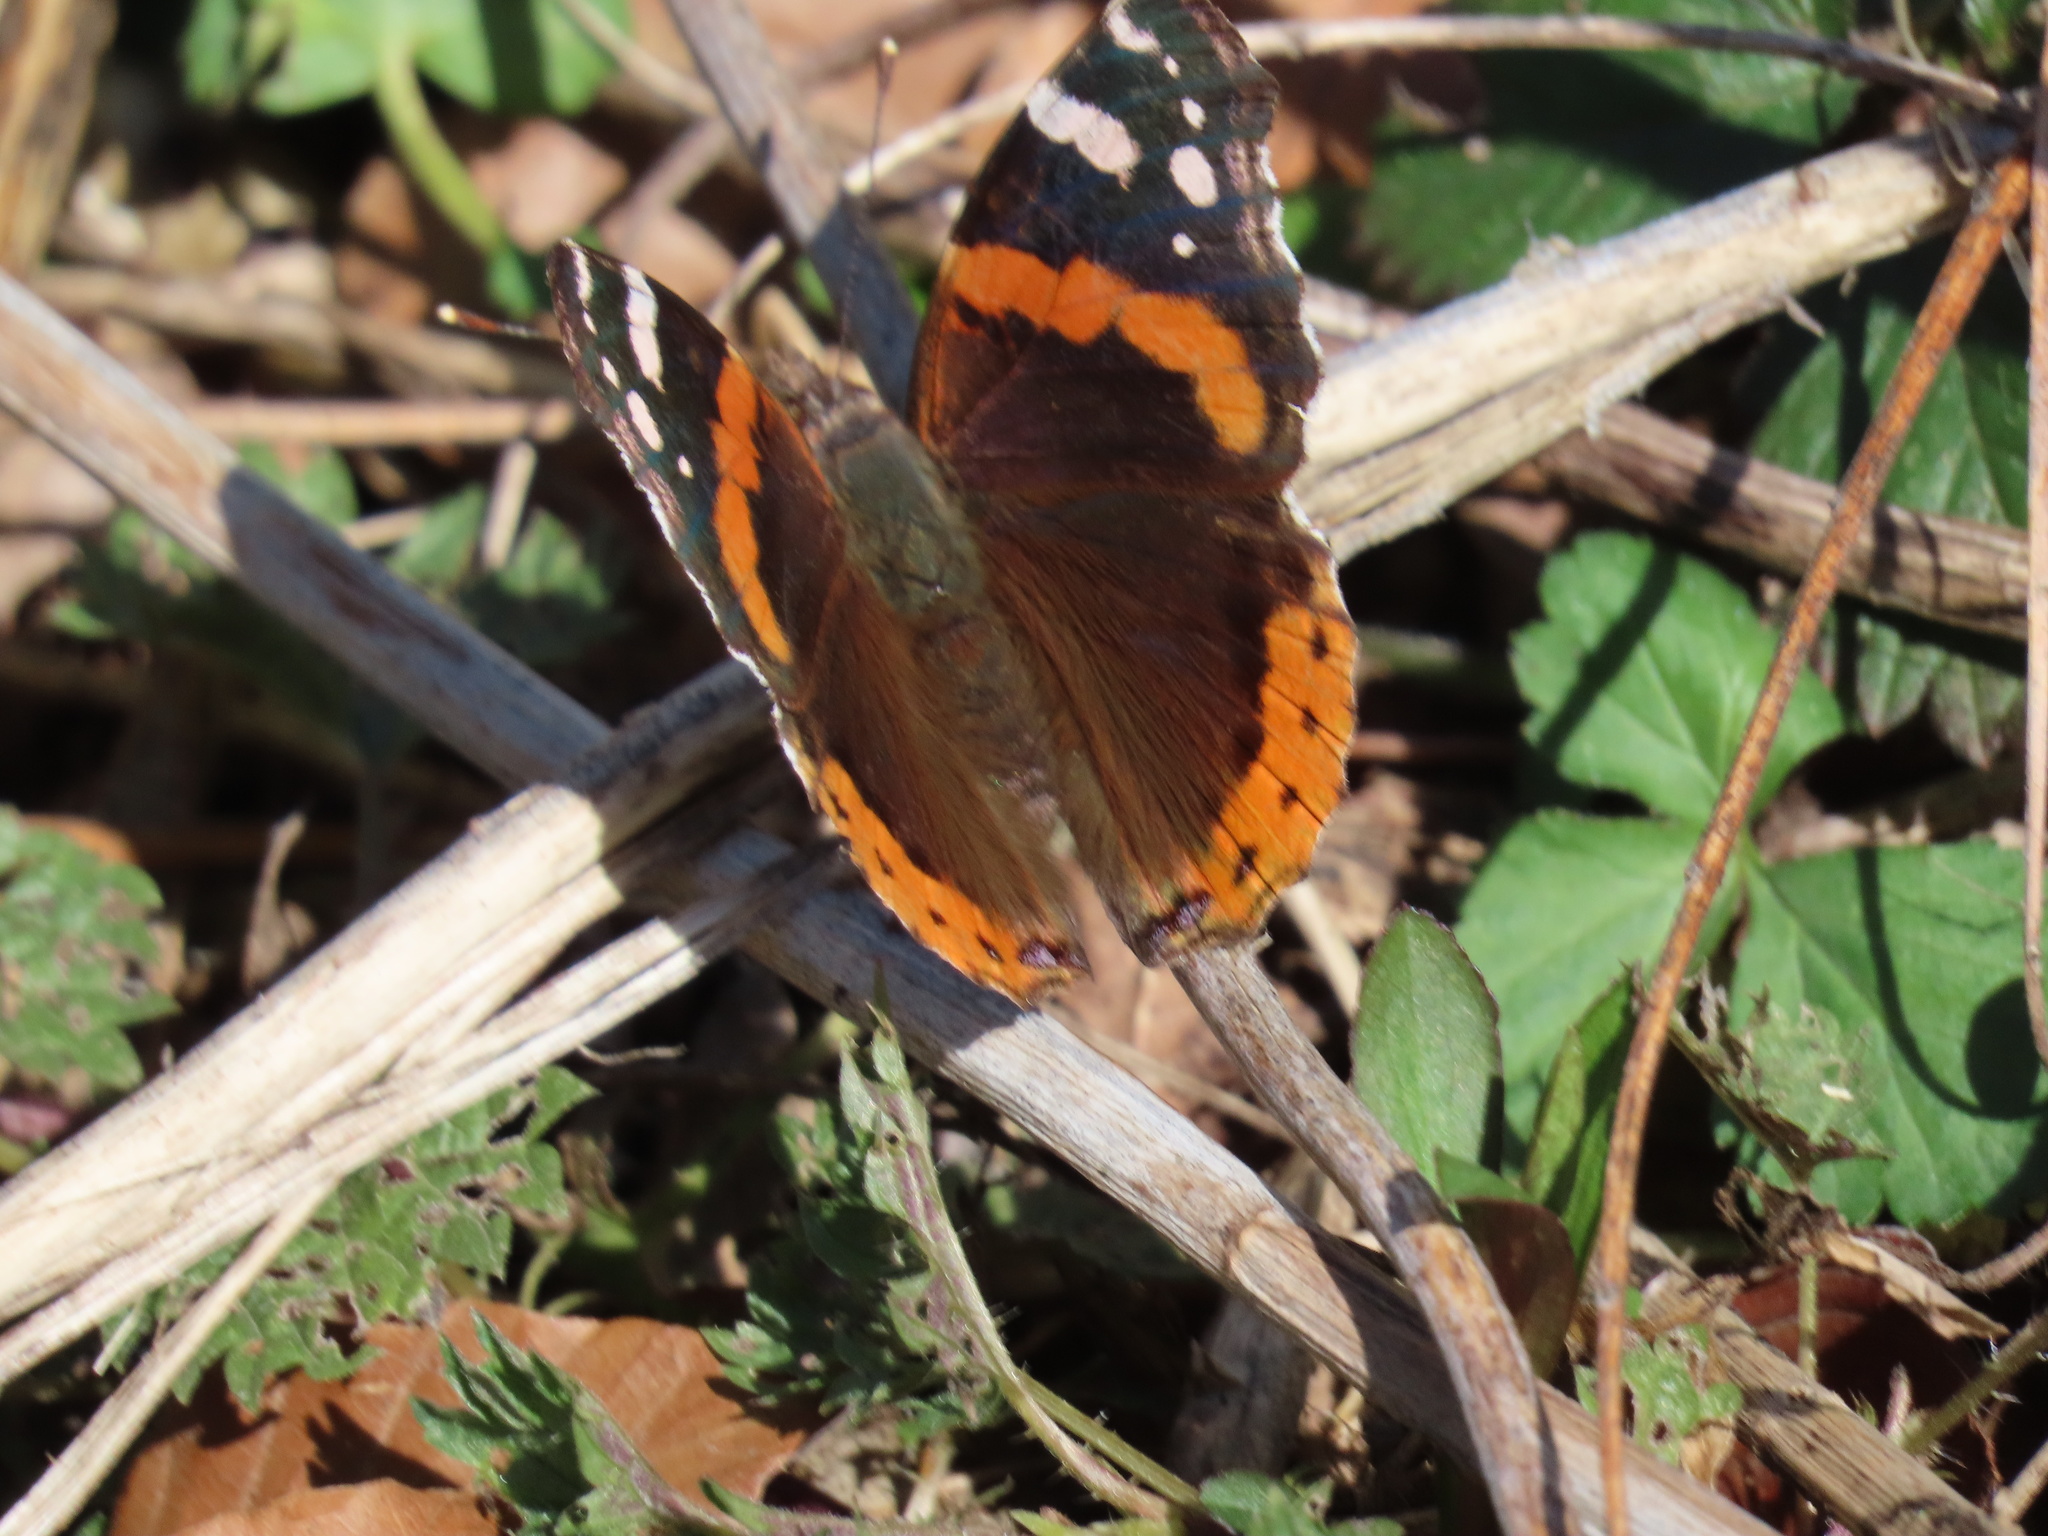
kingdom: Animalia
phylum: Arthropoda
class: Insecta
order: Lepidoptera
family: Nymphalidae
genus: Vanessa
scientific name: Vanessa atalanta
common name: Red admiral
